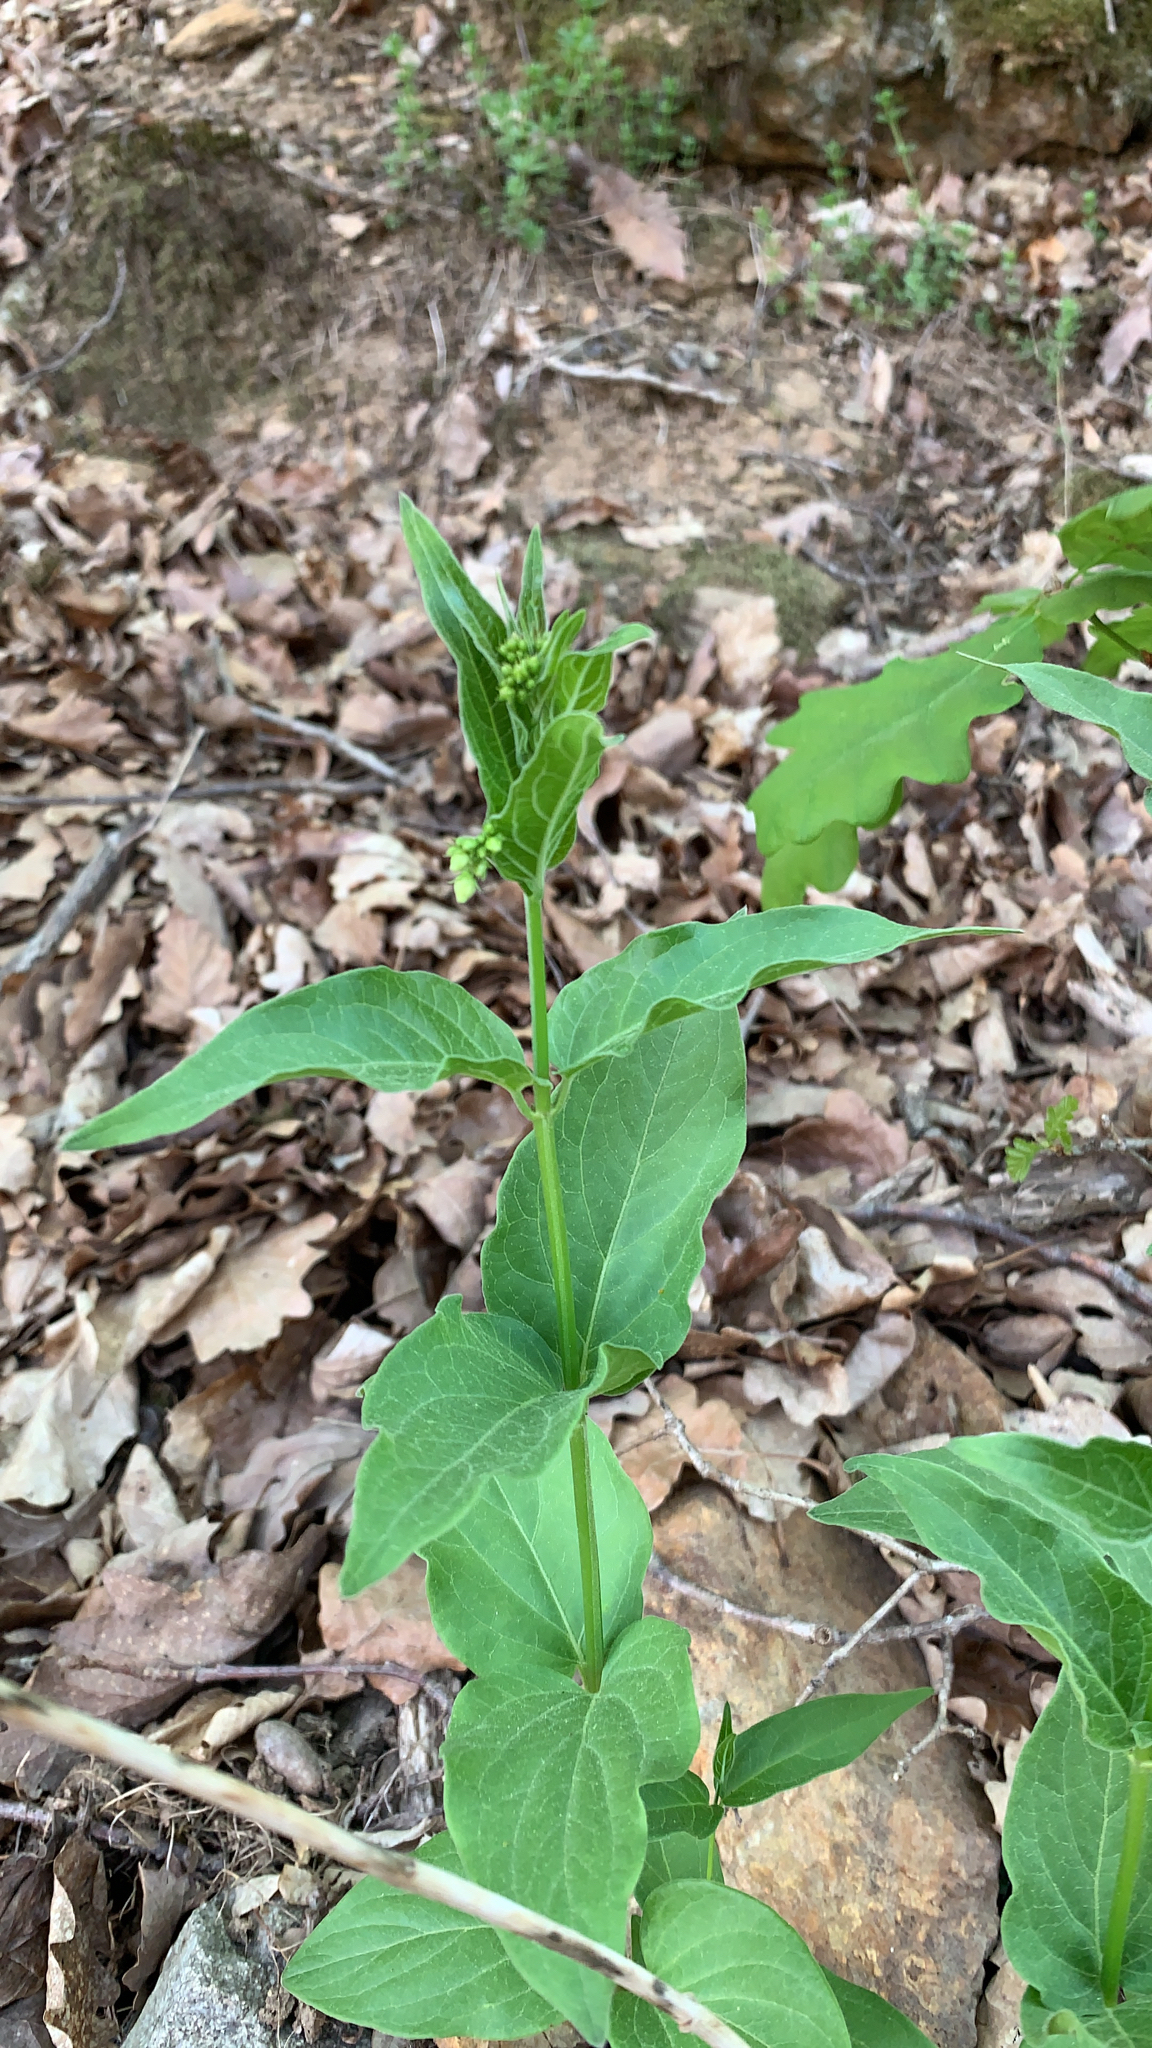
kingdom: Plantae
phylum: Tracheophyta
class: Magnoliopsida
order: Gentianales
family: Apocynaceae
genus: Vincetoxicum
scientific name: Vincetoxicum hirundinaria
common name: White swallowwort
